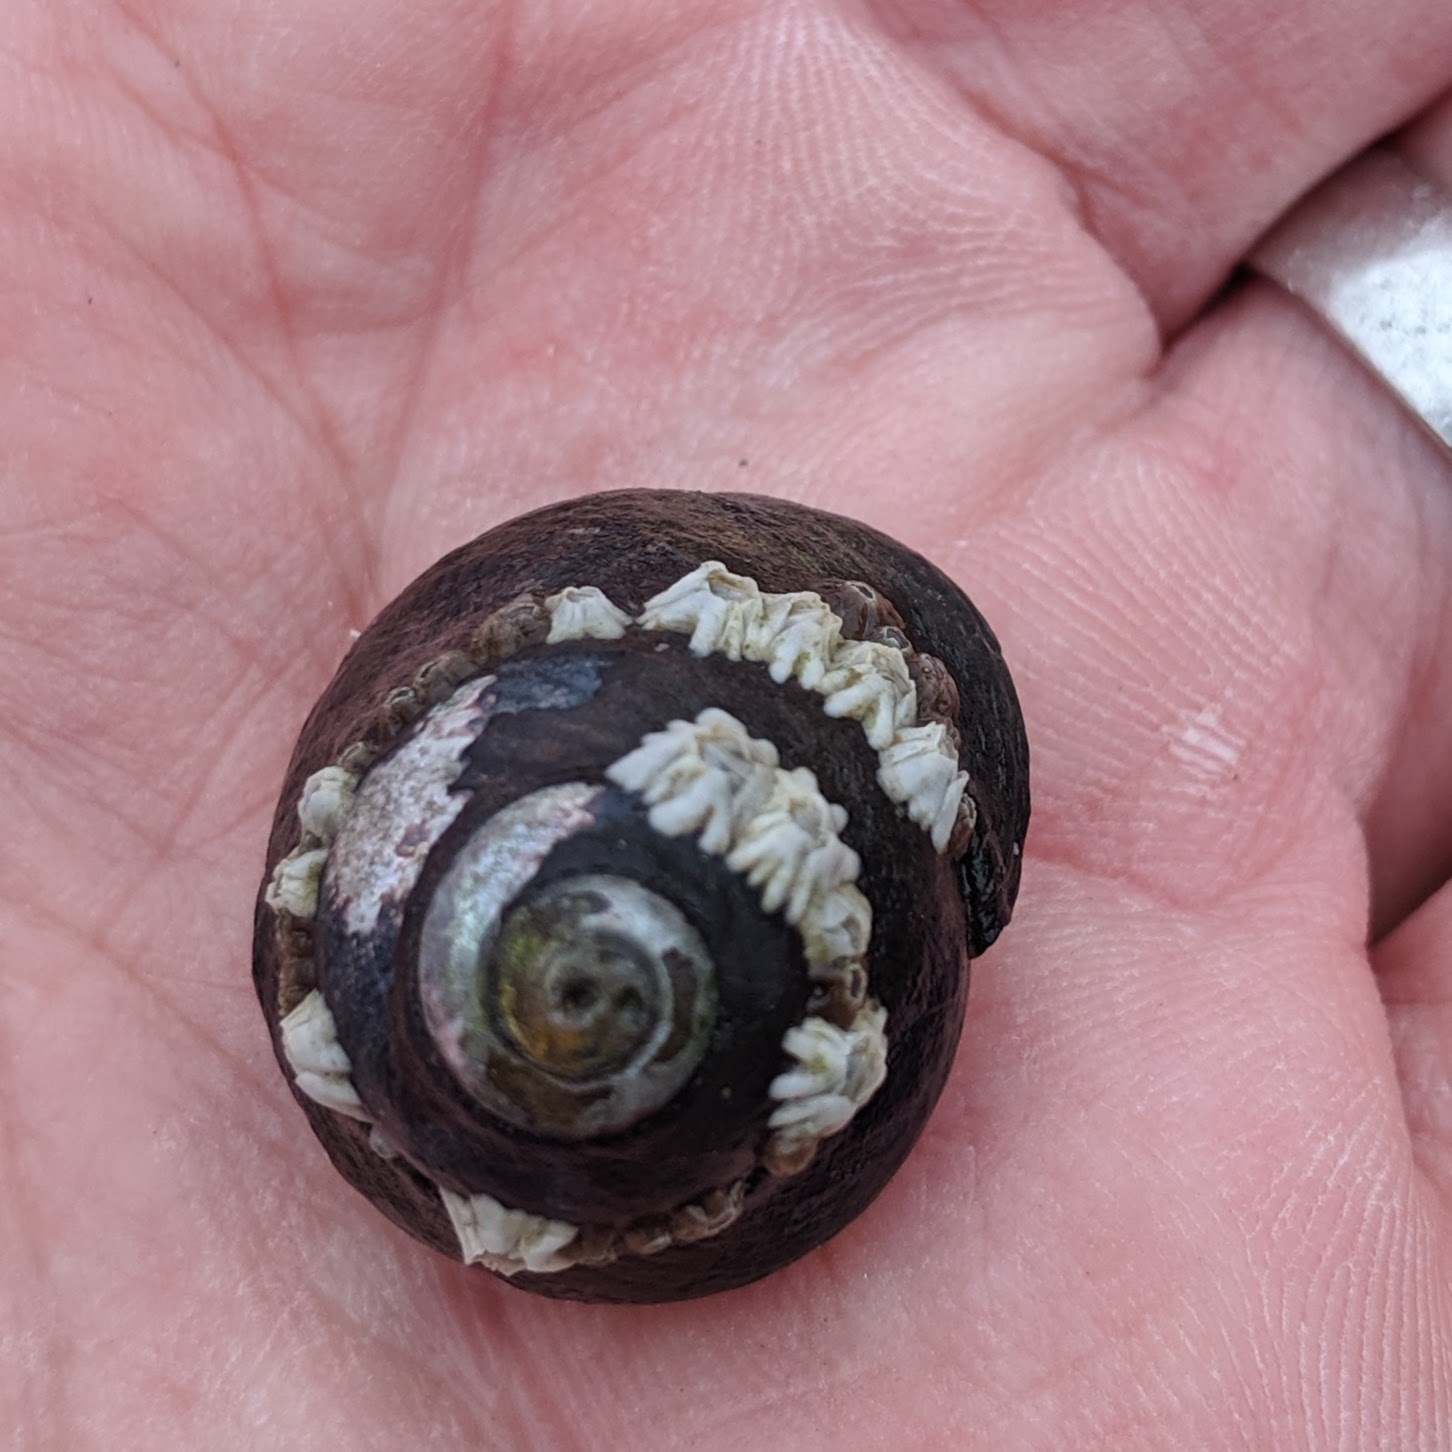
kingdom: Animalia
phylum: Mollusca
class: Gastropoda
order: Trochida
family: Tegulidae
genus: Tegula
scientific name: Tegula funebralis
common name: Black tegula
